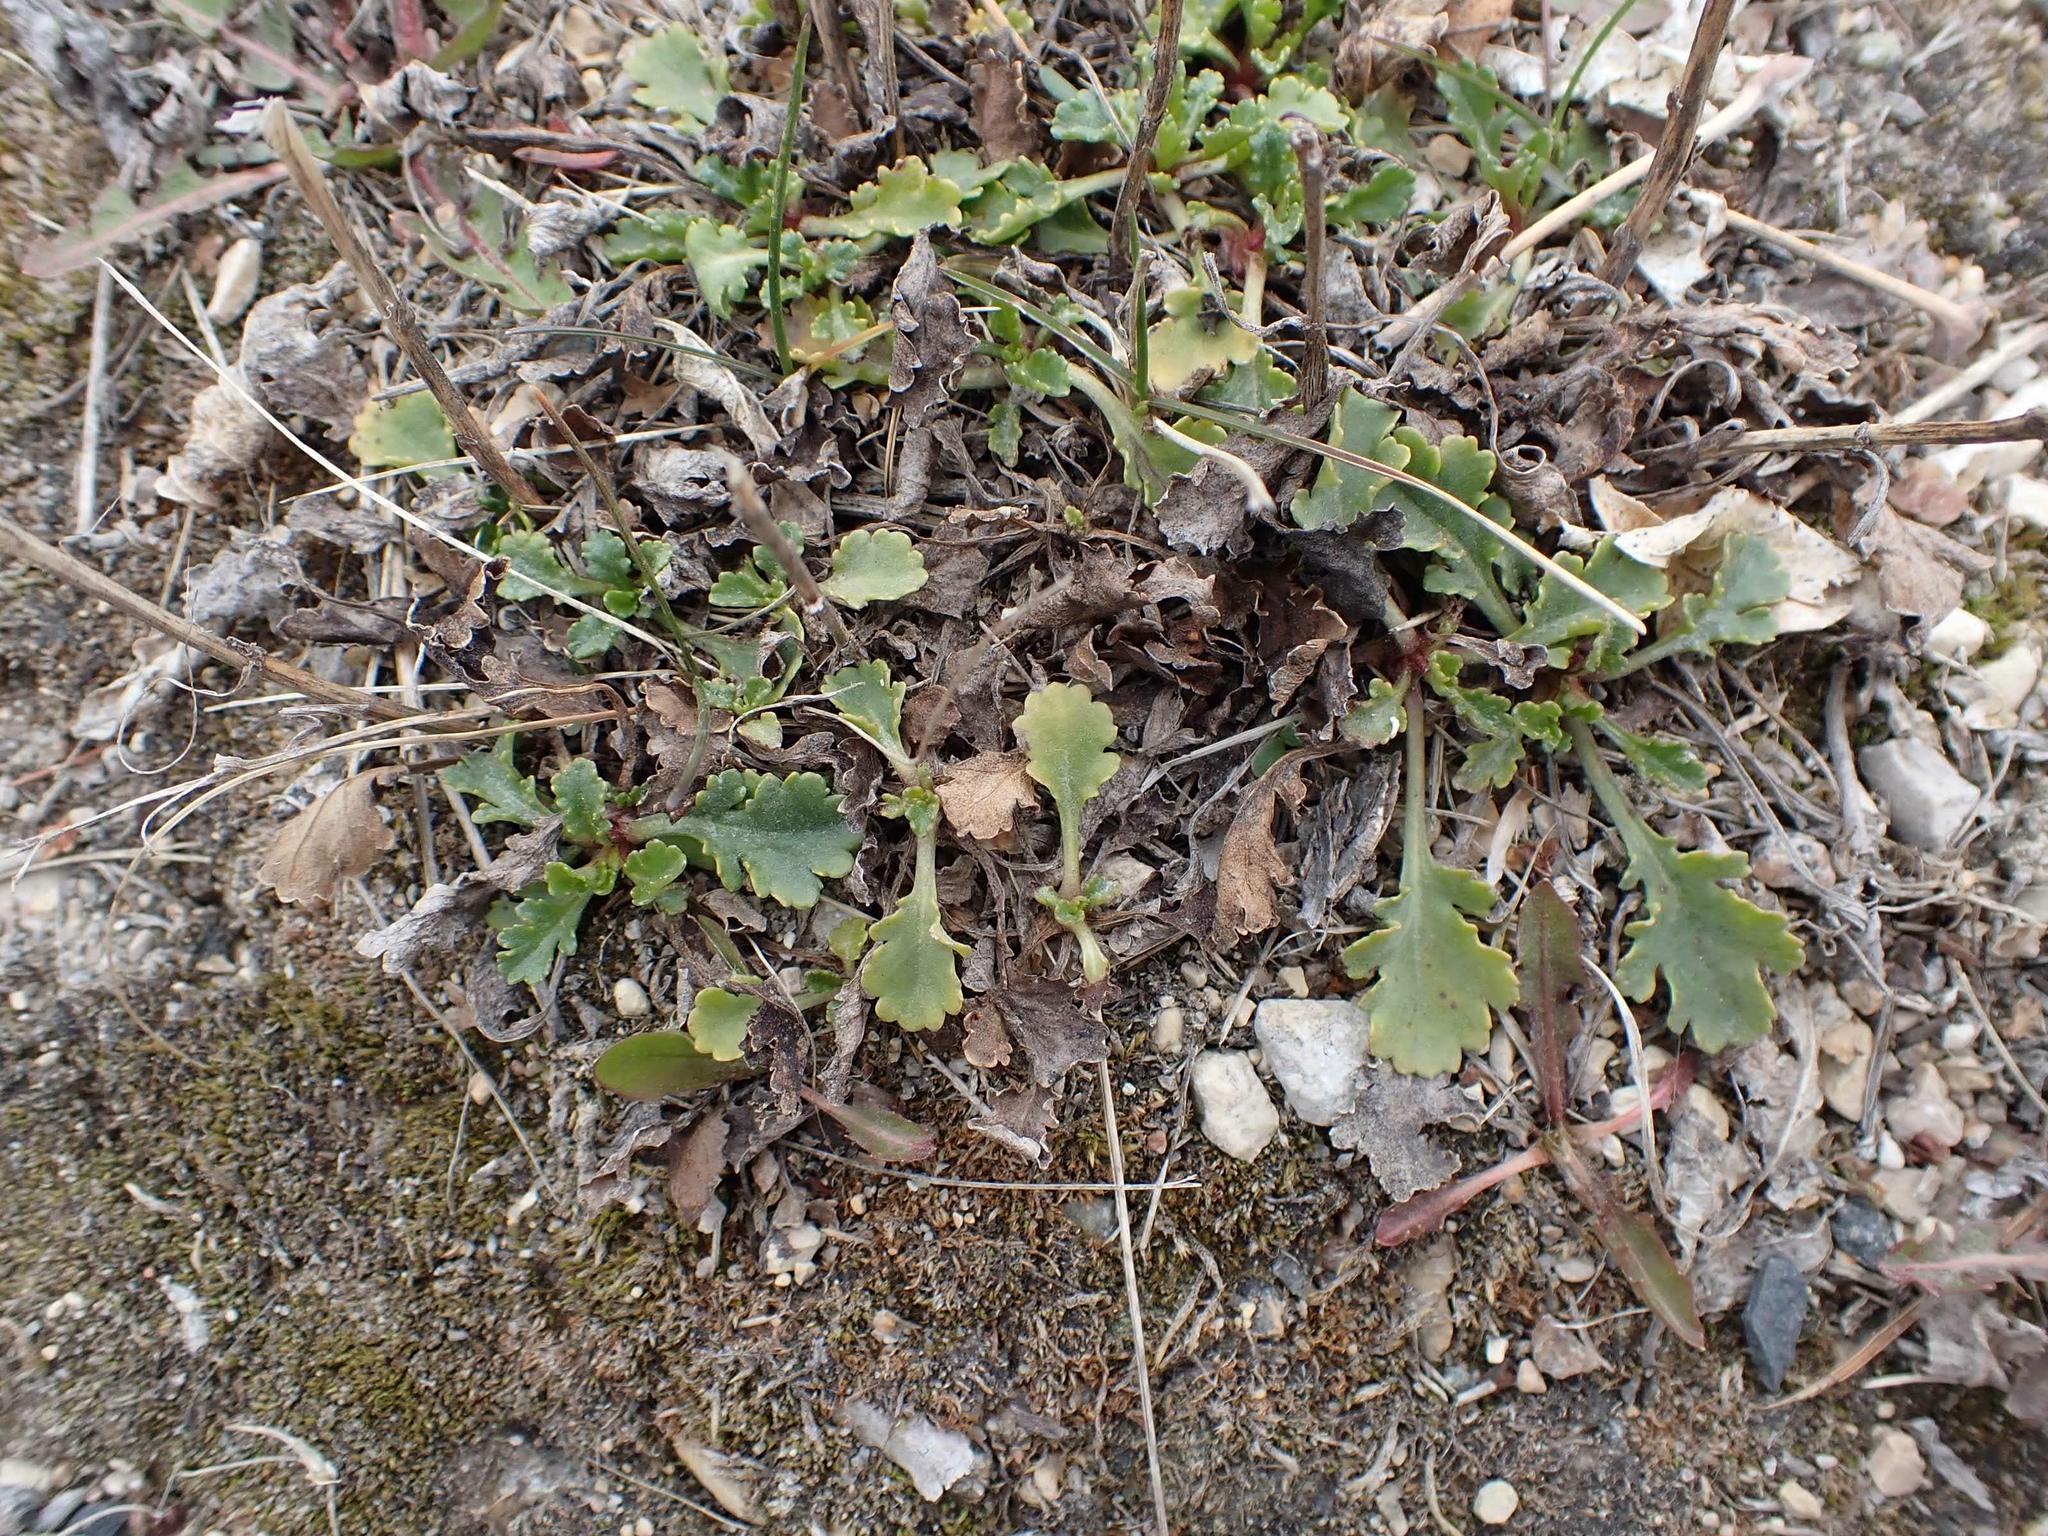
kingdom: Plantae
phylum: Tracheophyta
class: Magnoliopsida
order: Asterales
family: Asteraceae
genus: Leucanthemum
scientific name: Leucanthemum vulgare
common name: Oxeye daisy
